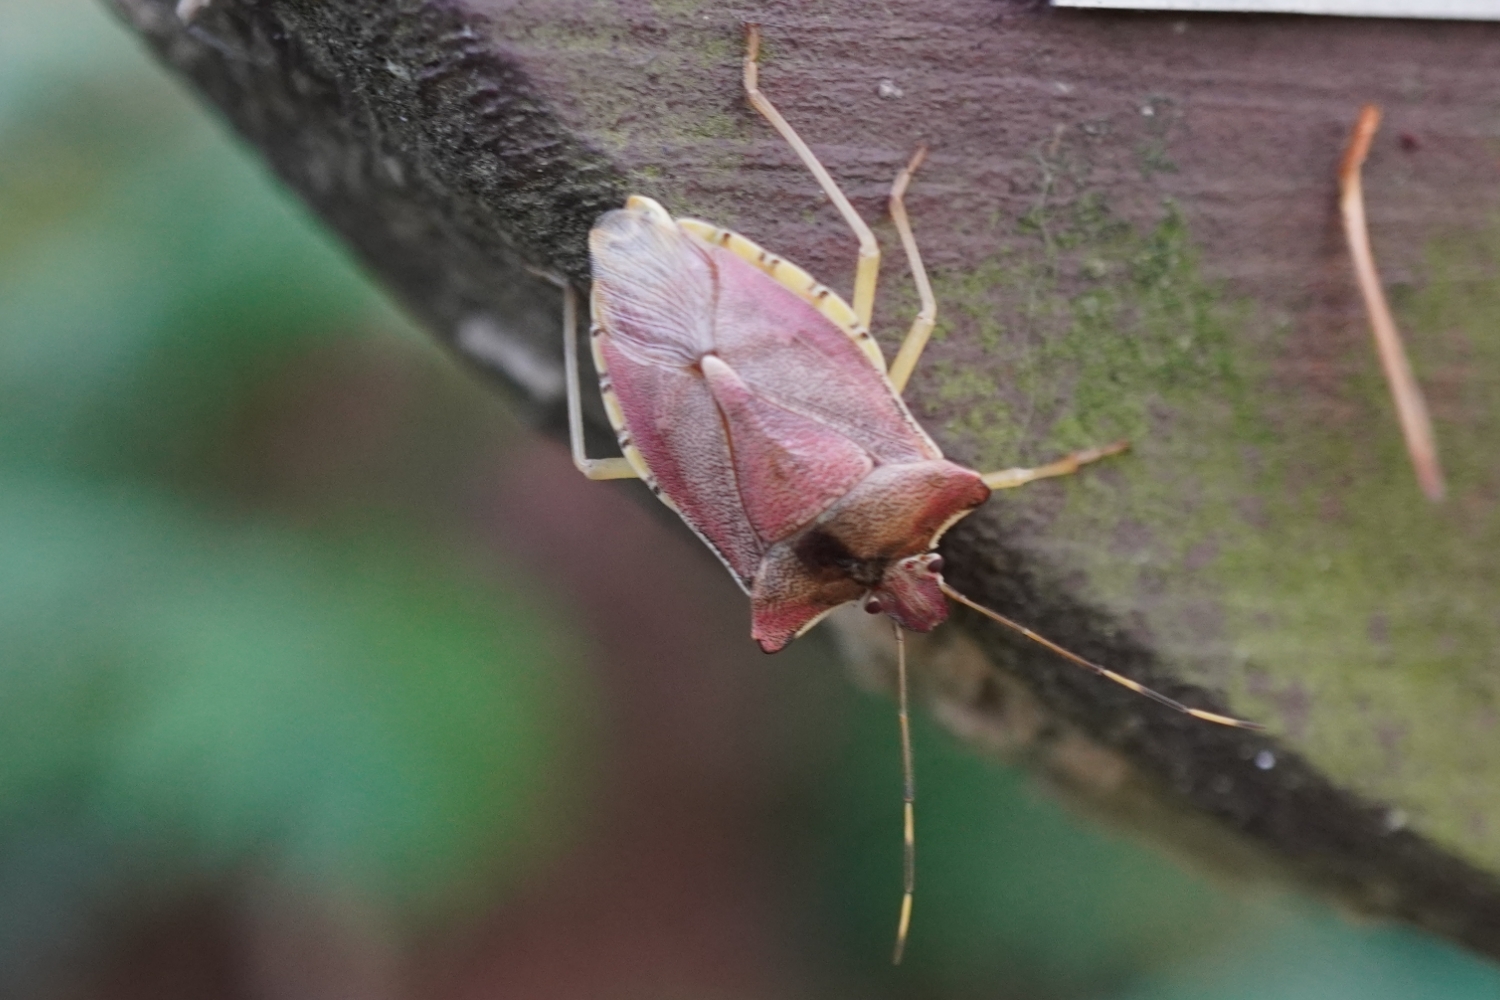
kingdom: Animalia
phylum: Arthropoda
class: Insecta
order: Hemiptera
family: Pentatomidae
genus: Pentatoma
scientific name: Pentatoma
